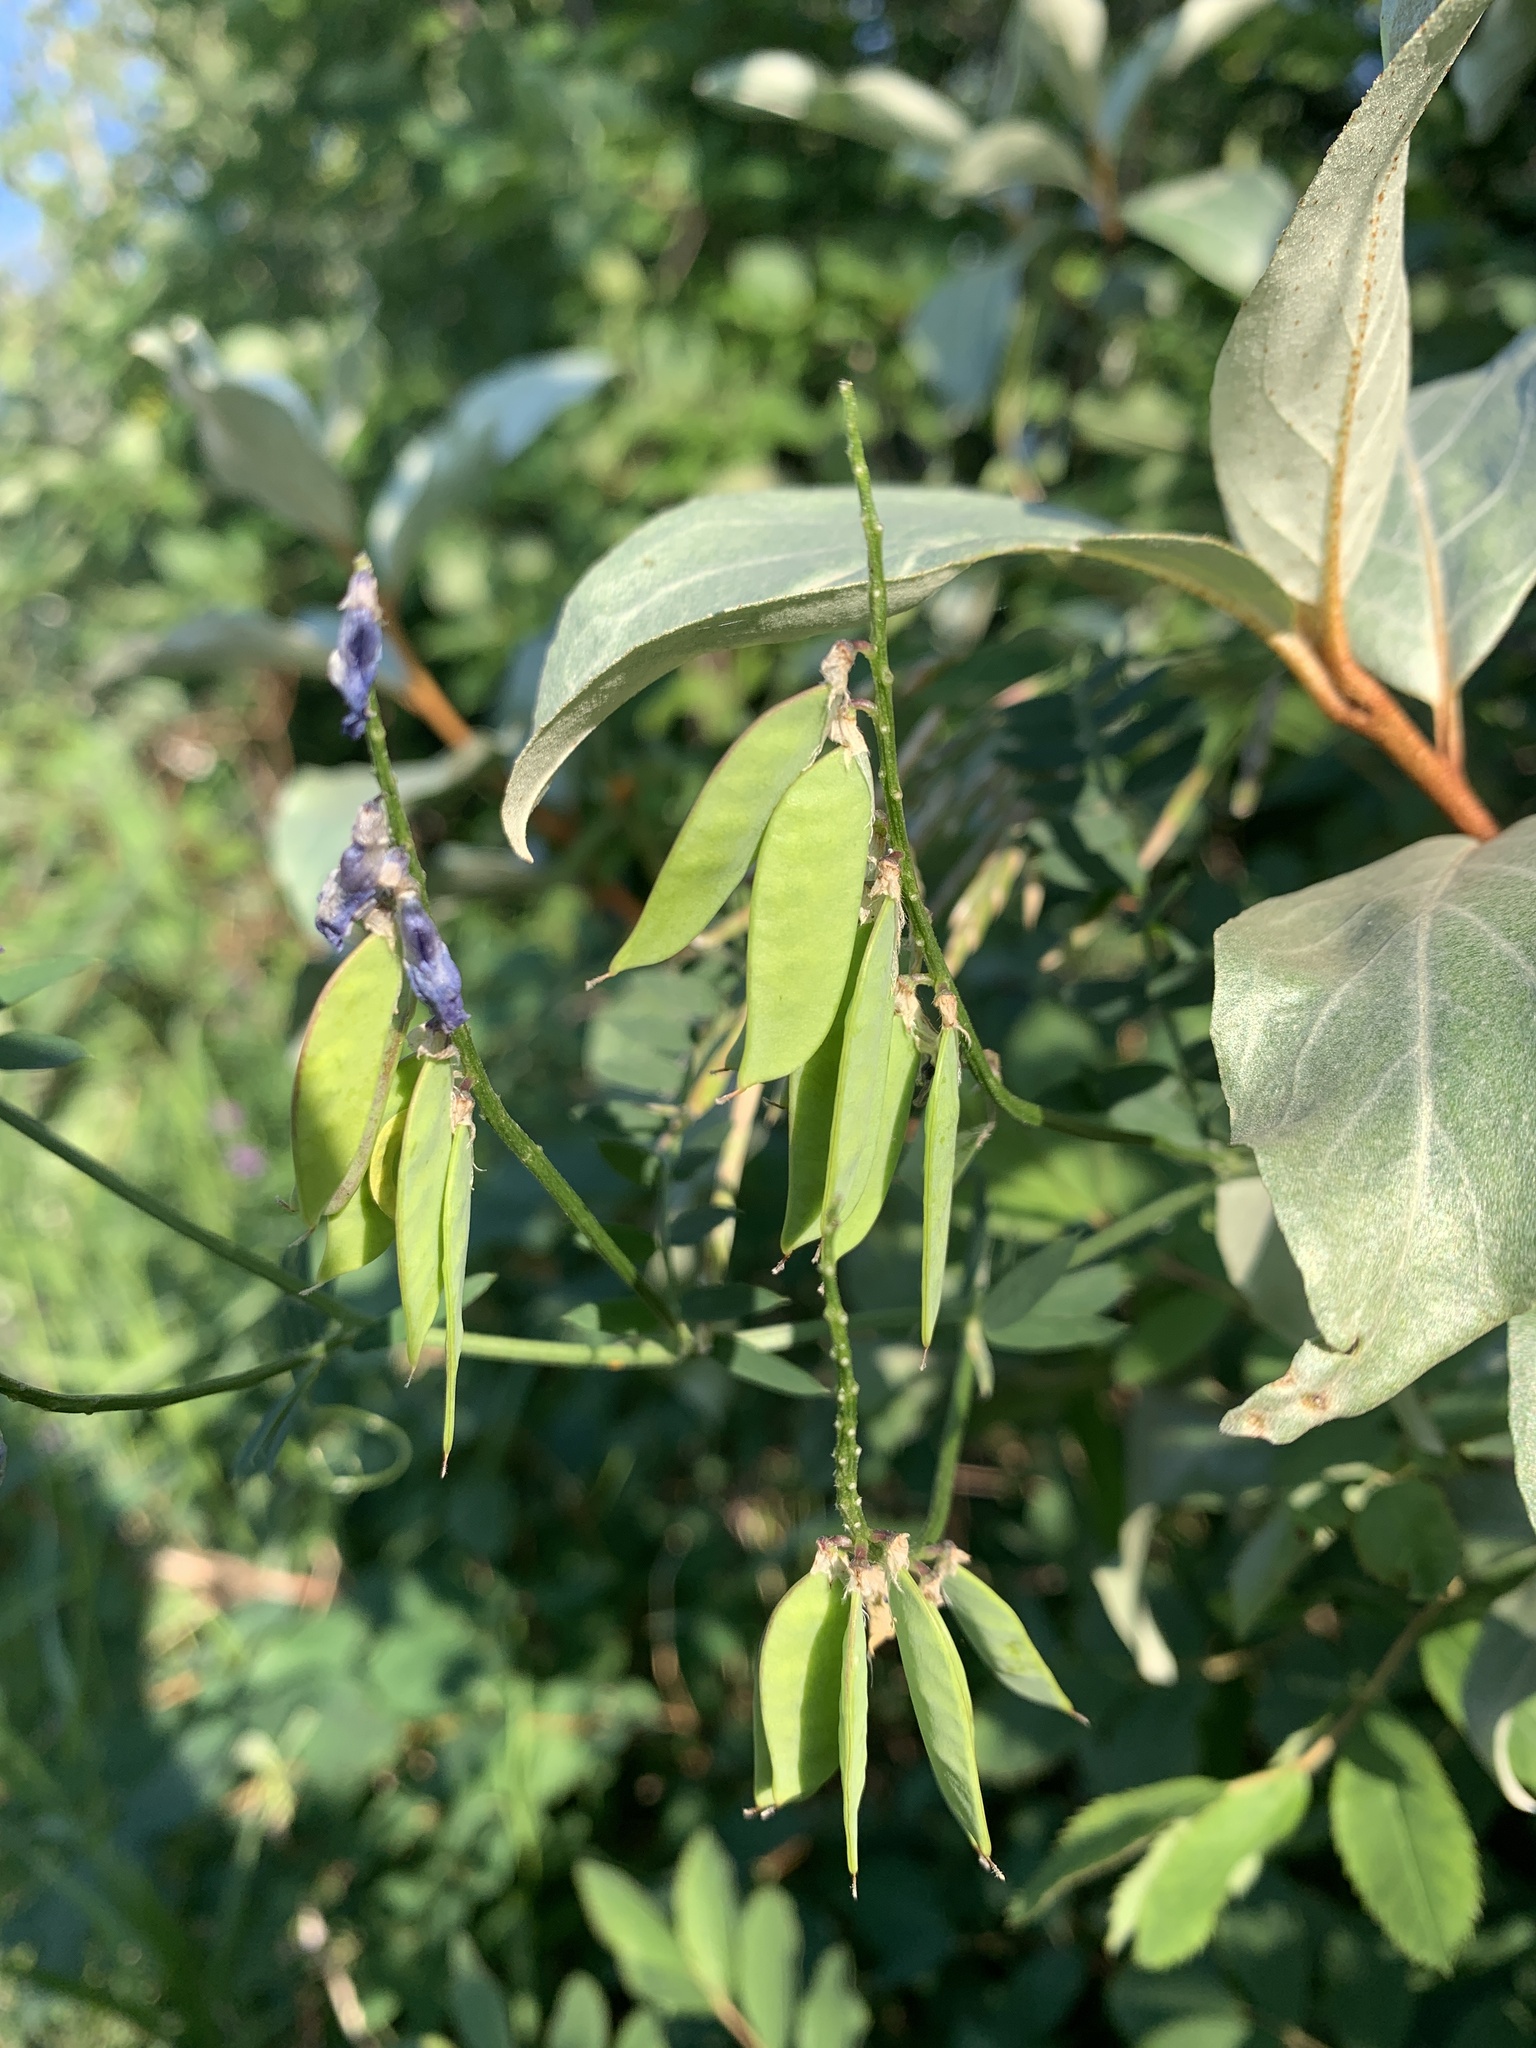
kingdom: Plantae
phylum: Tracheophyta
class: Magnoliopsida
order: Fabales
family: Fabaceae
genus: Vicia
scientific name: Vicia cracca
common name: Bird vetch
